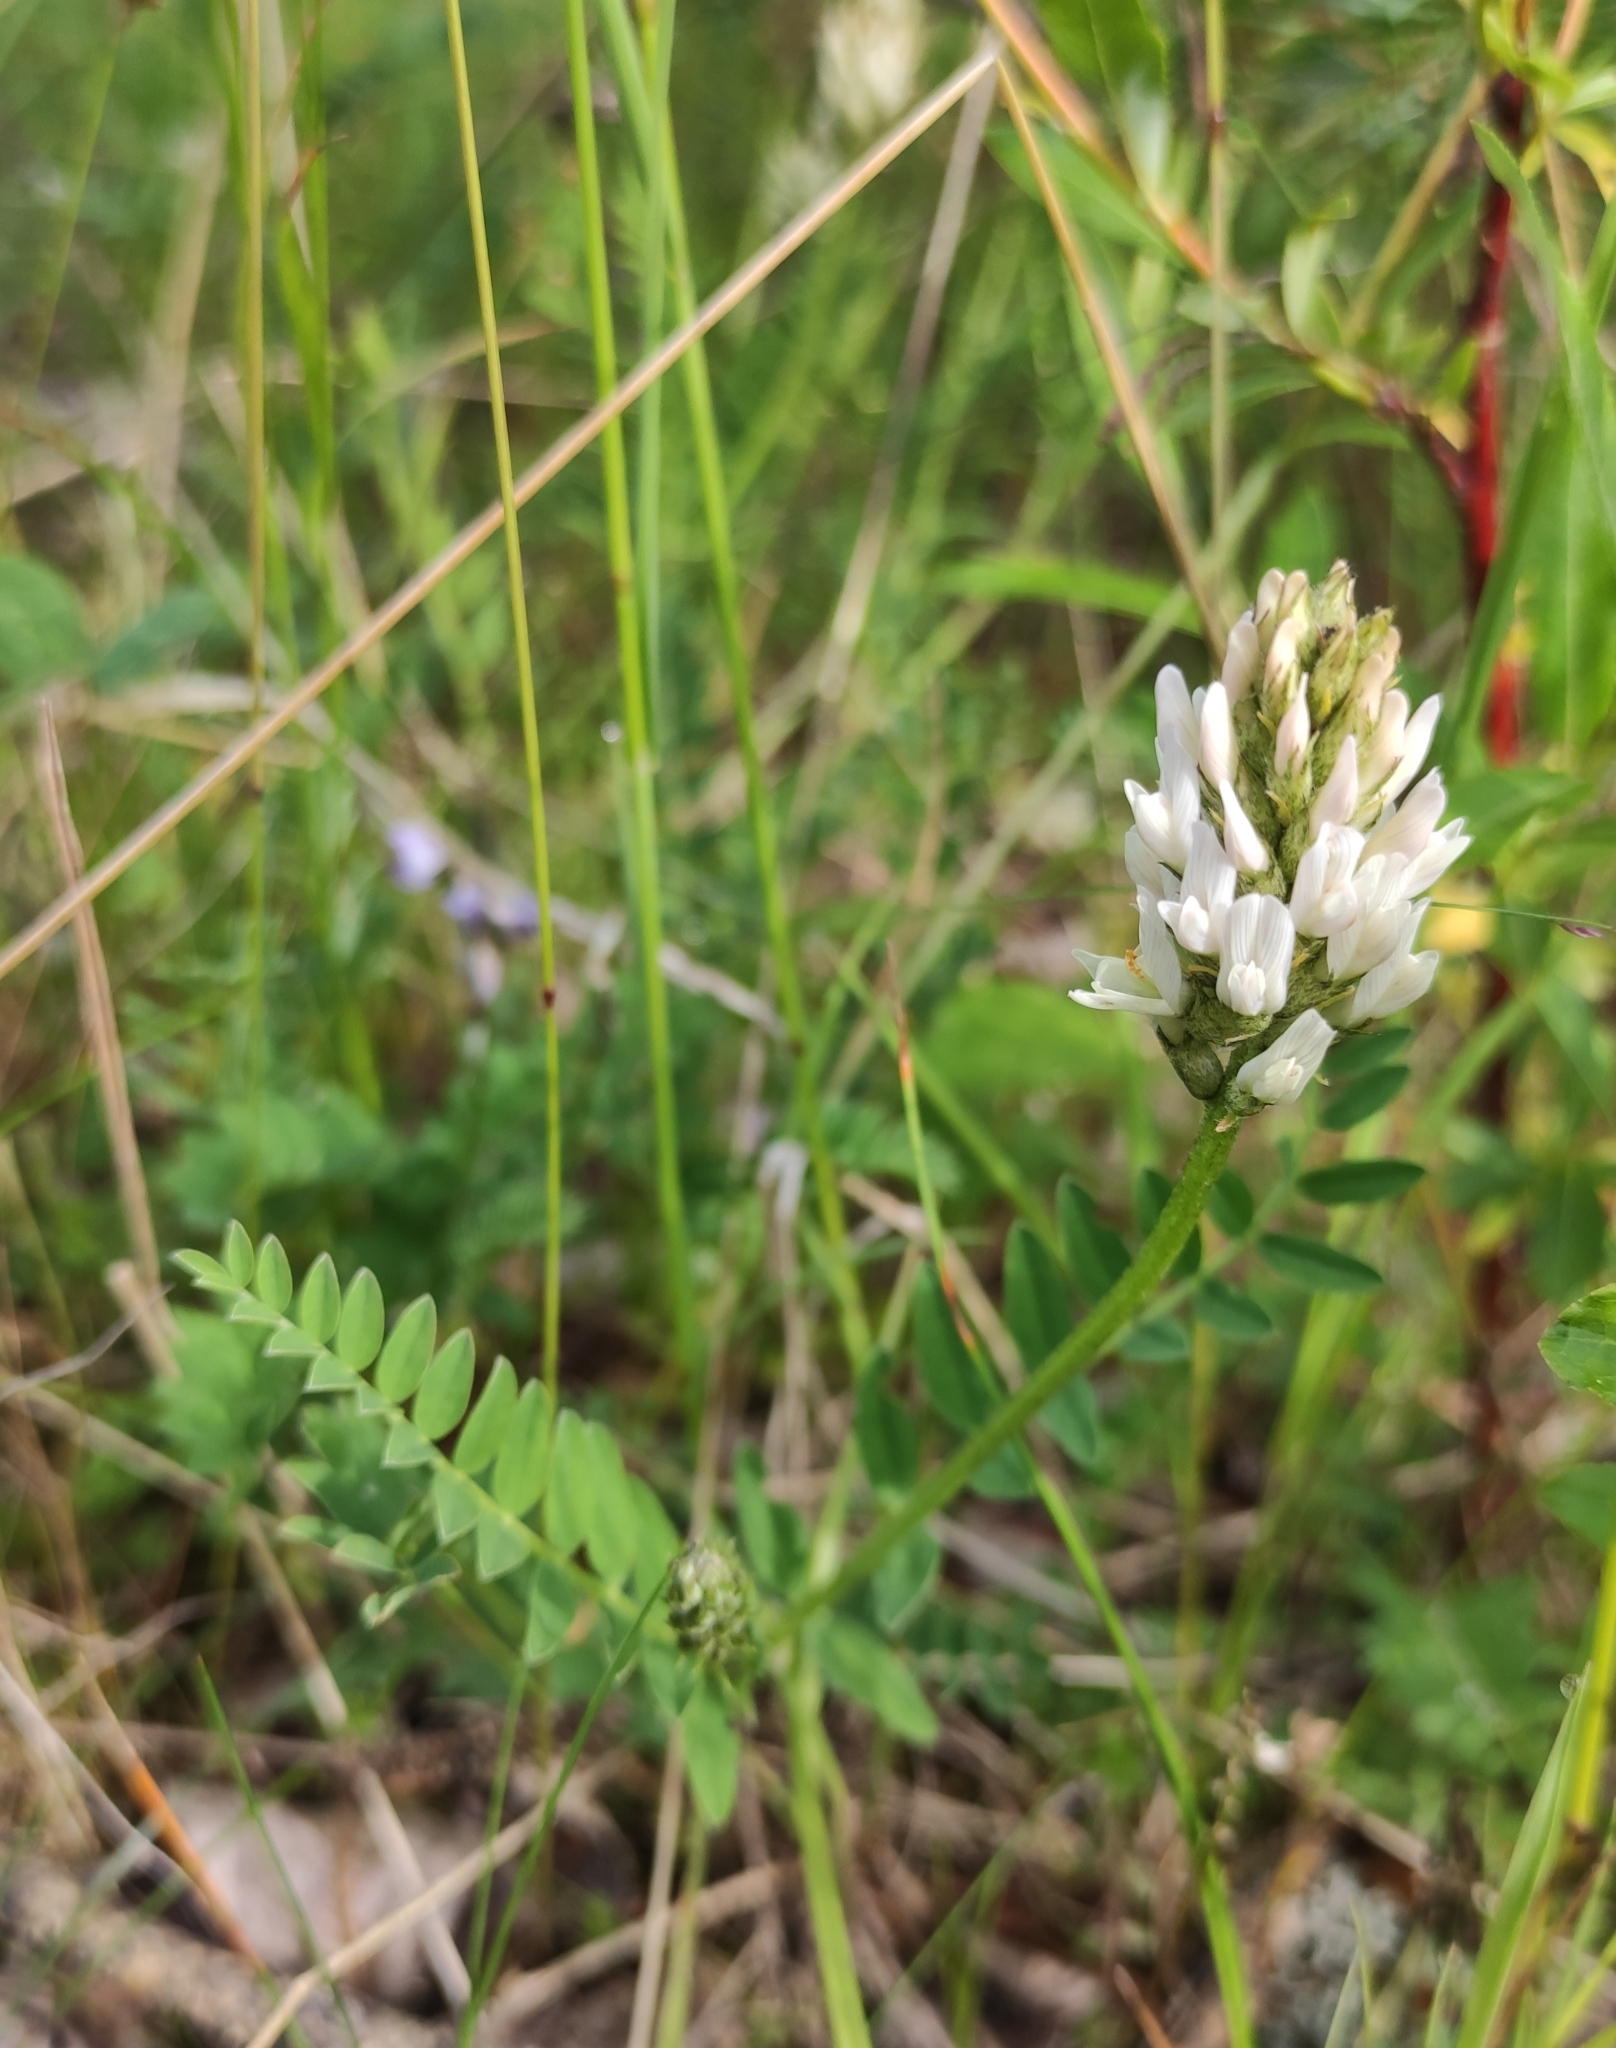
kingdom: Plantae
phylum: Tracheophyta
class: Magnoliopsida
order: Fabales
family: Fabaceae
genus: Astragalus
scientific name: Astragalus laxmannii
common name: Laxmann's milk-vetch
